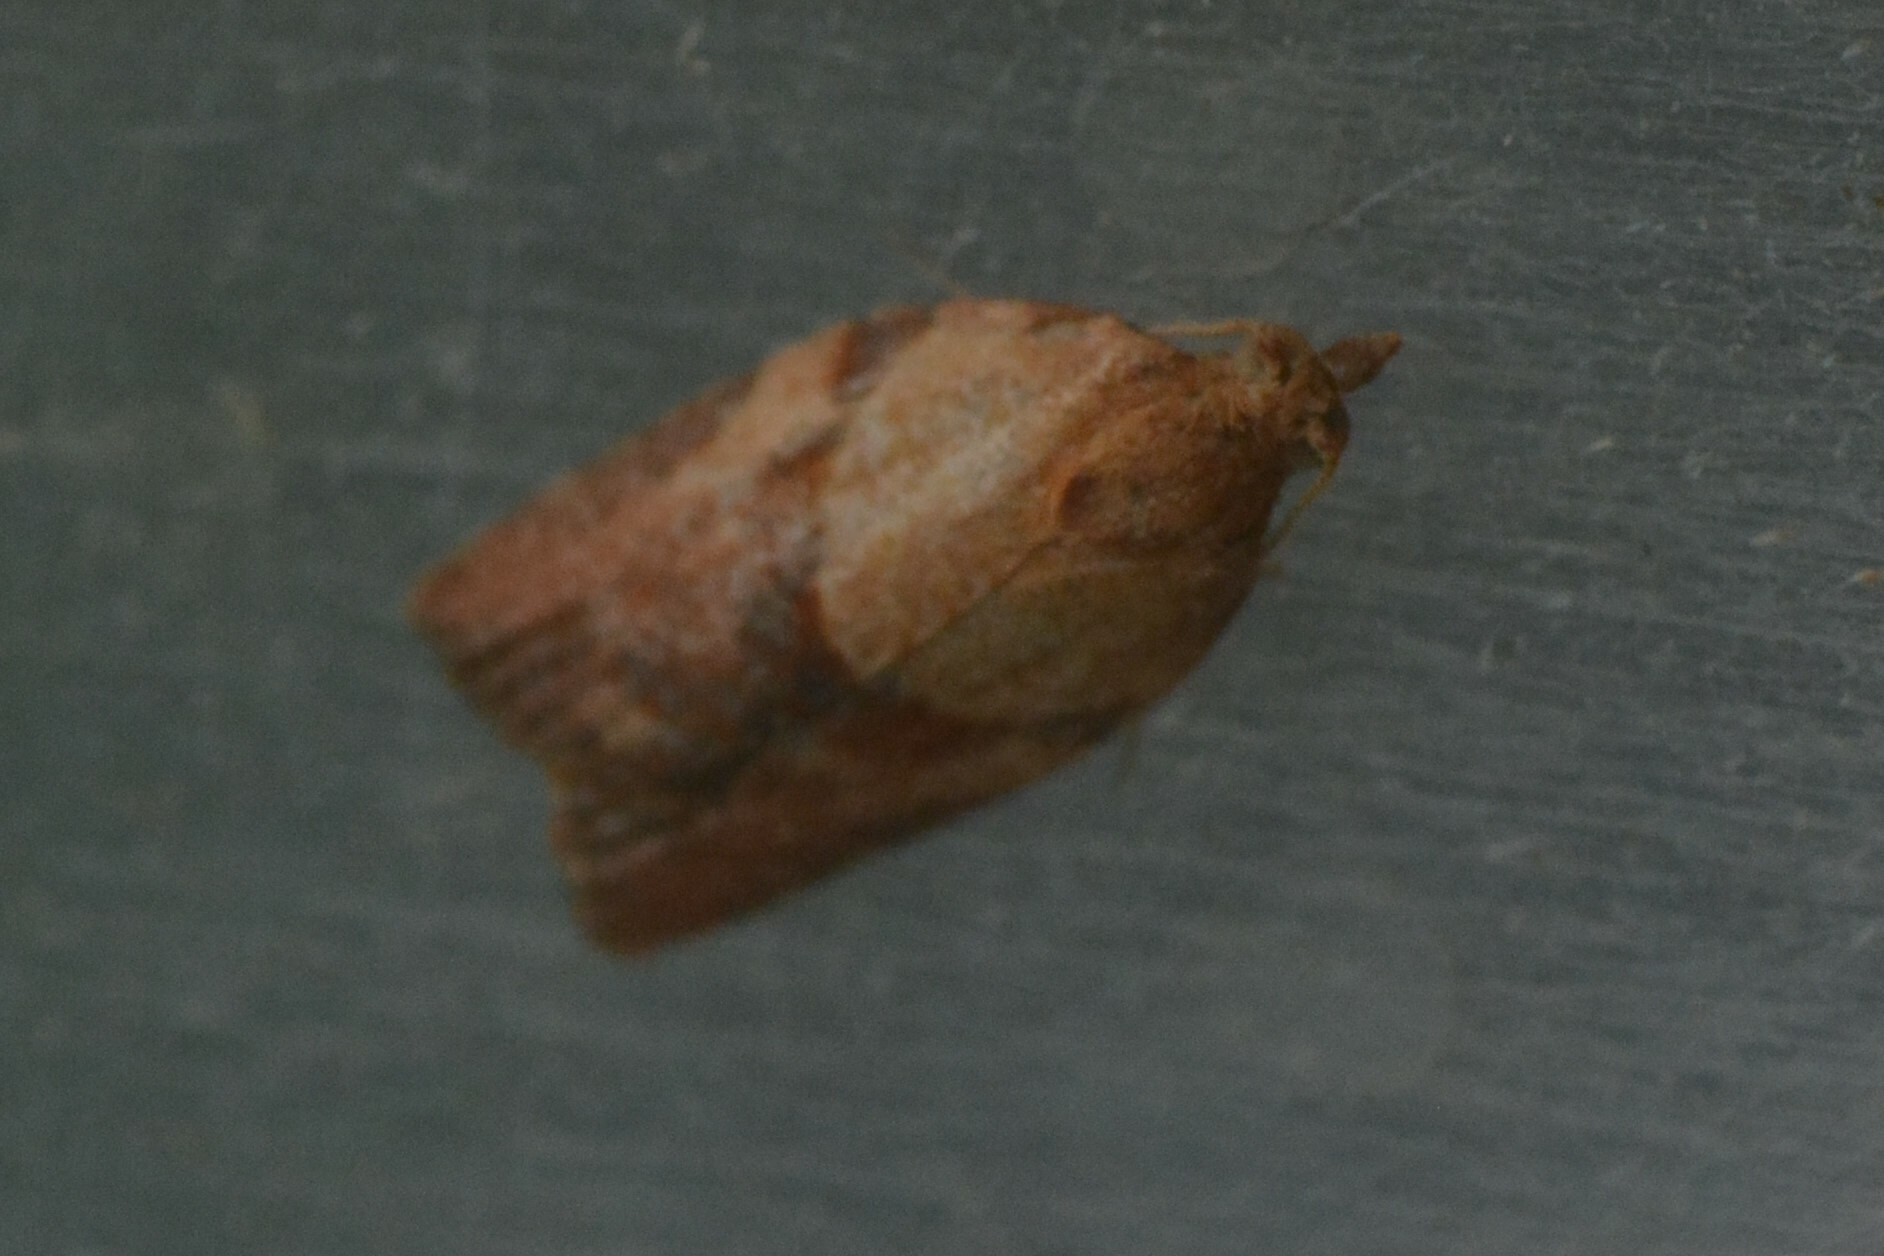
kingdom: Animalia
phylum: Arthropoda
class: Insecta
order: Lepidoptera
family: Tortricidae
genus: Epiphyas
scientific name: Epiphyas postvittana
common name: Light brown apple moth
